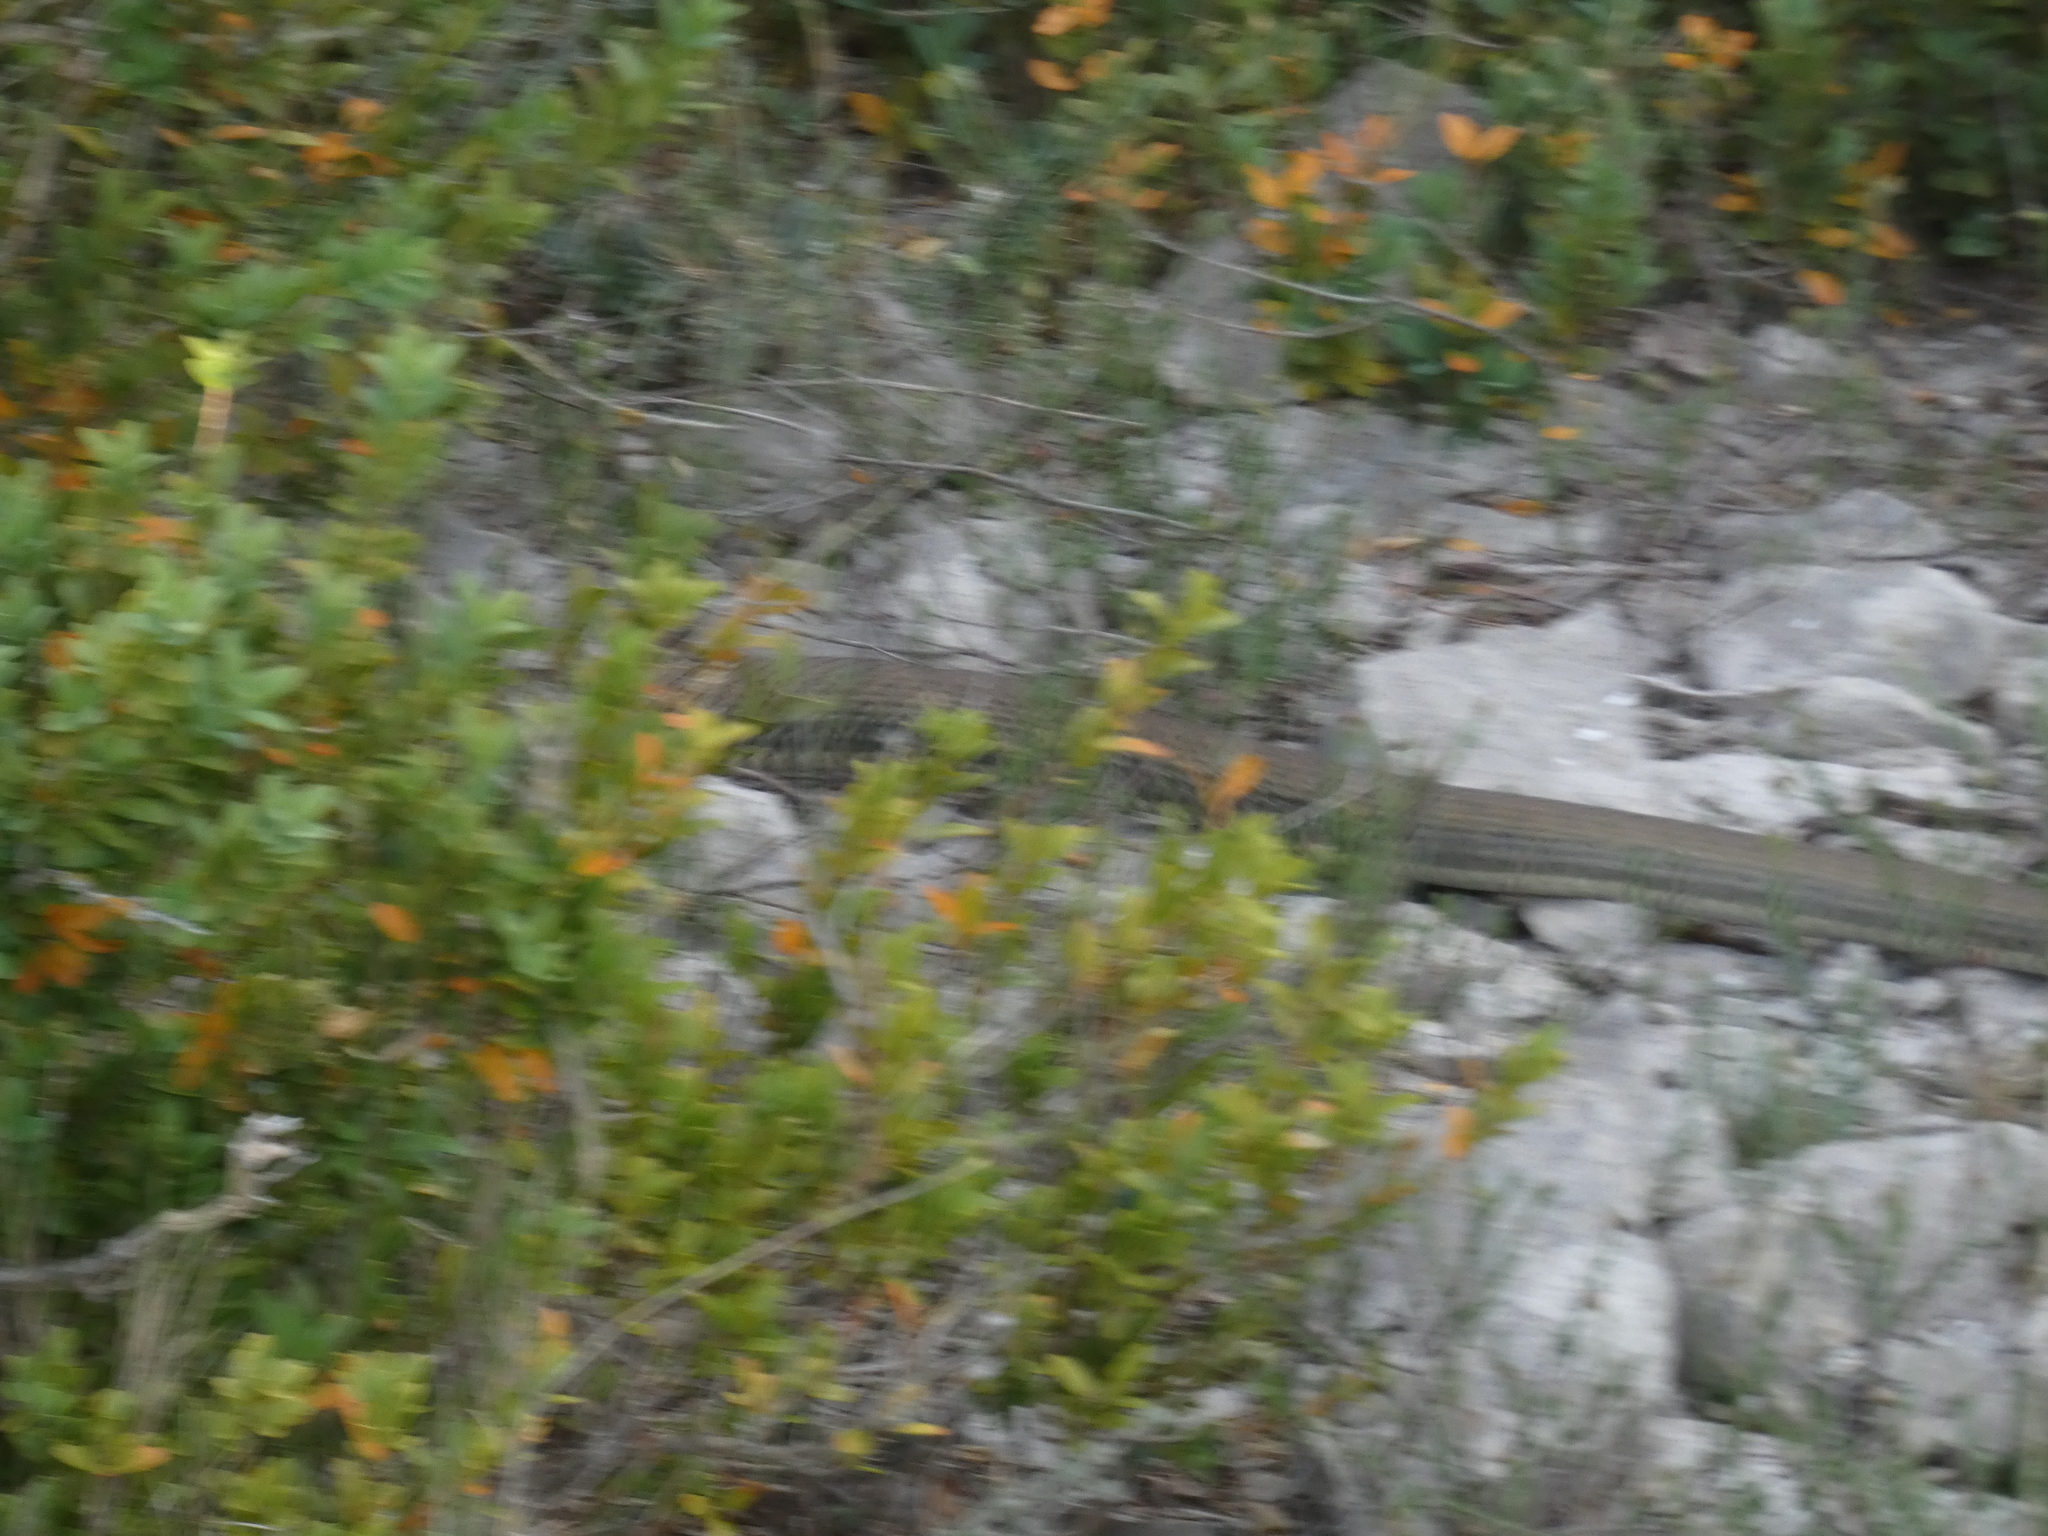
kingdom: Animalia
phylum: Chordata
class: Squamata
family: Psammophiidae
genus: Malpolon
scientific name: Malpolon monspessulanus
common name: Montpellier snake
